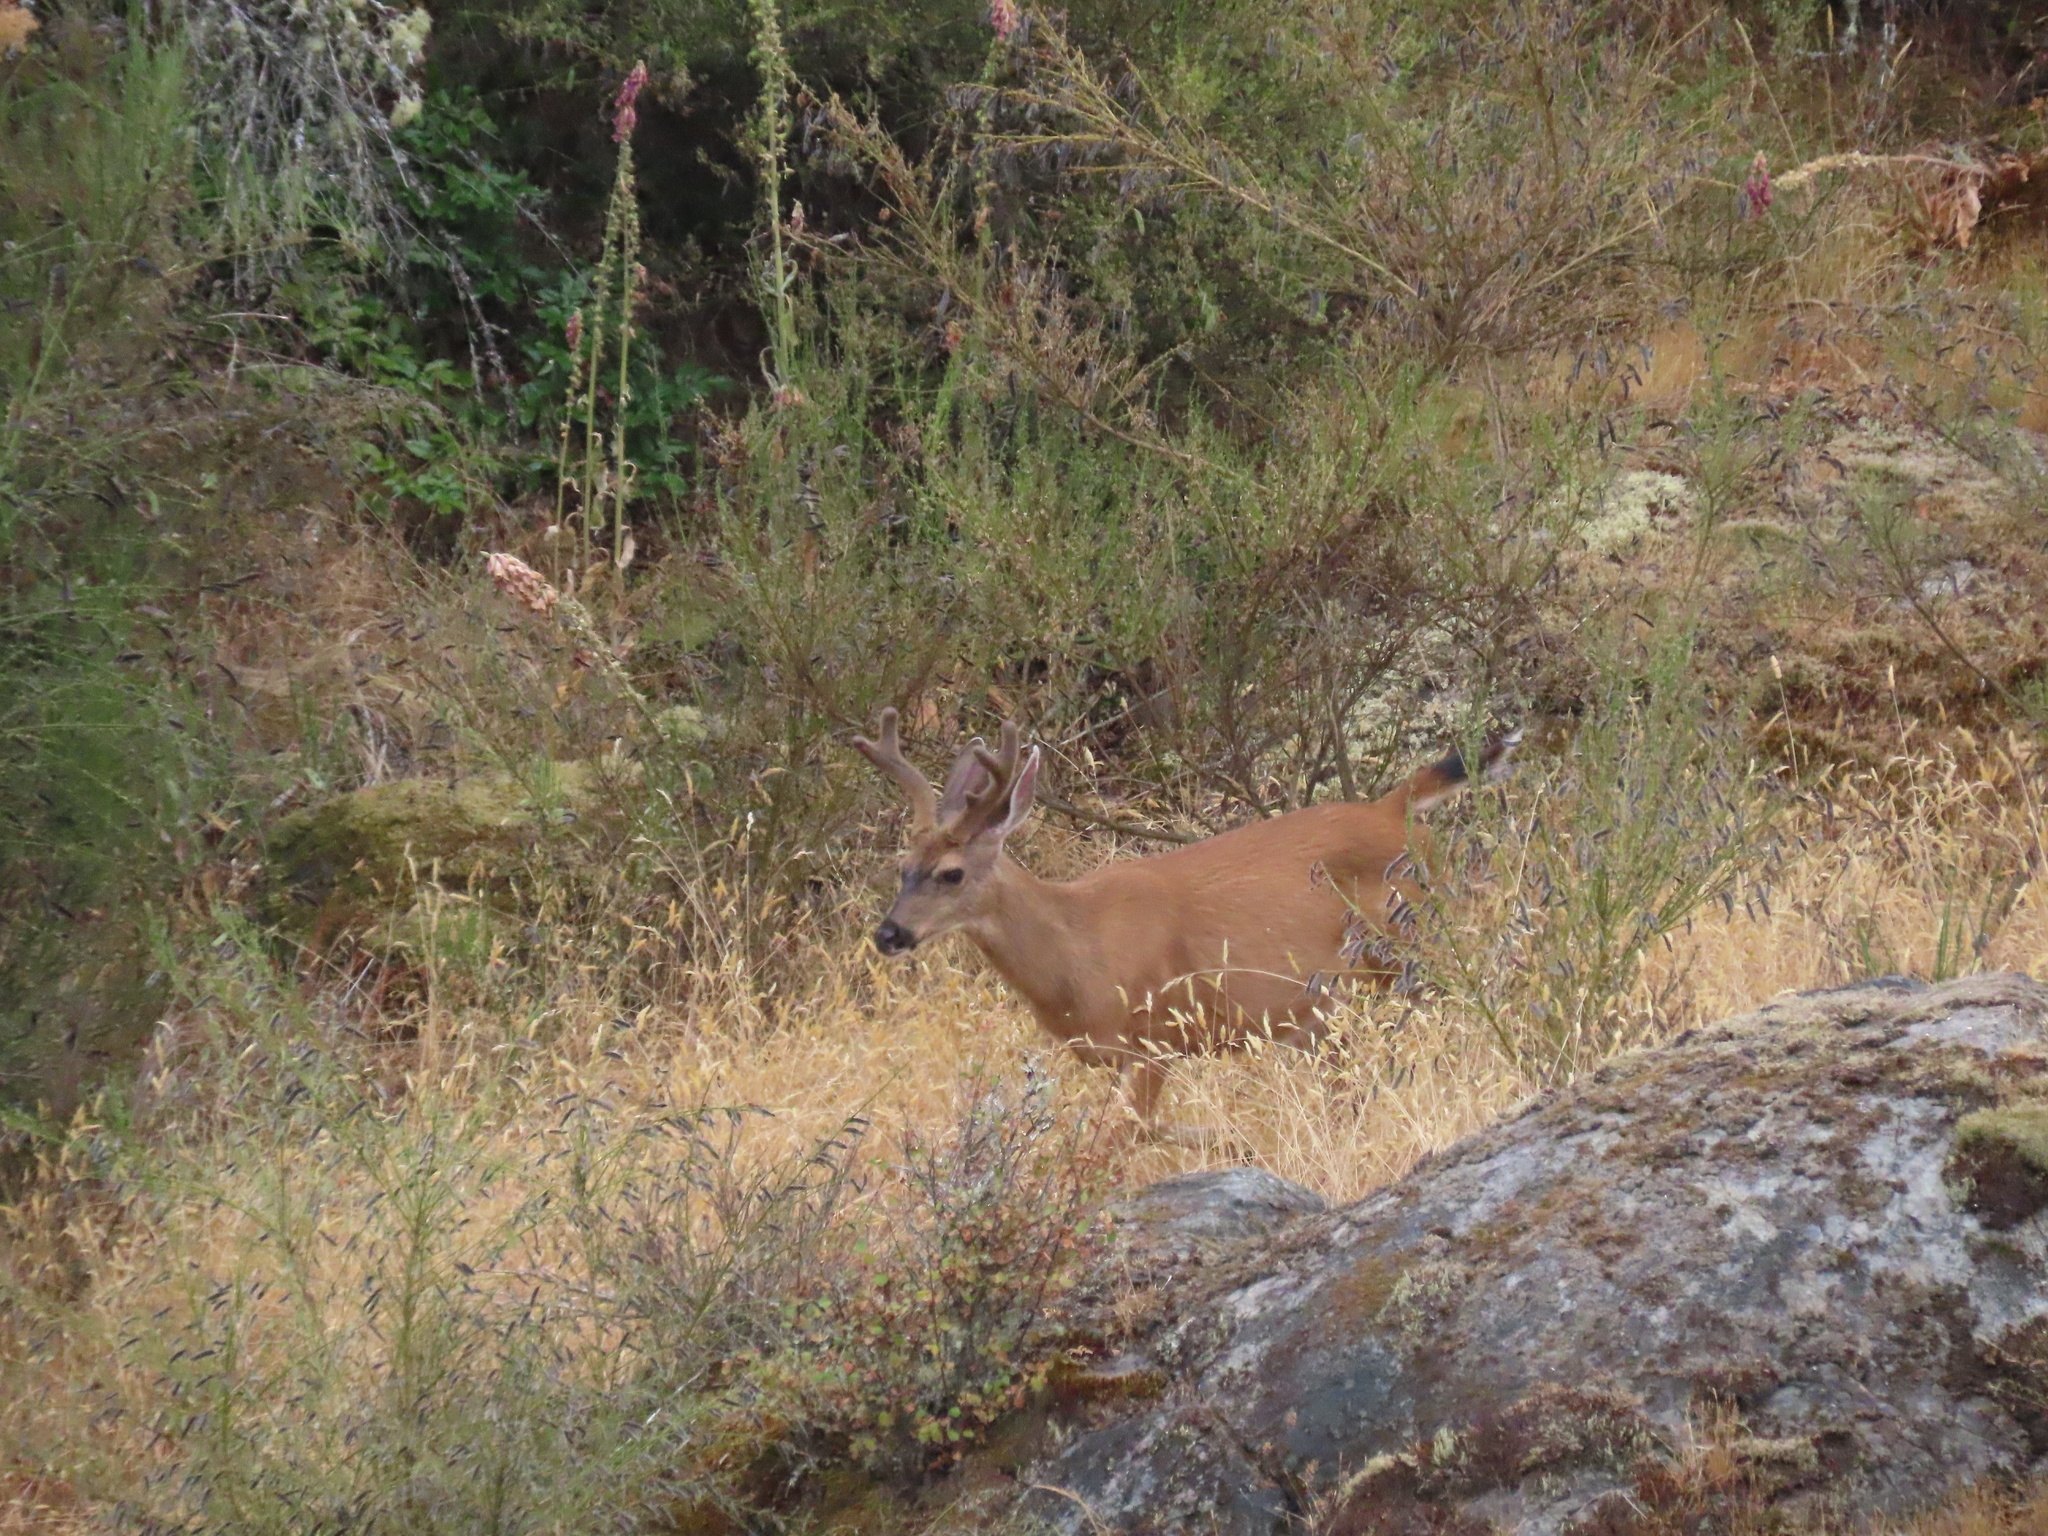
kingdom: Animalia
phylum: Chordata
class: Mammalia
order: Artiodactyla
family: Cervidae
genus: Odocoileus
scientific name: Odocoileus hemionus
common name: Mule deer
